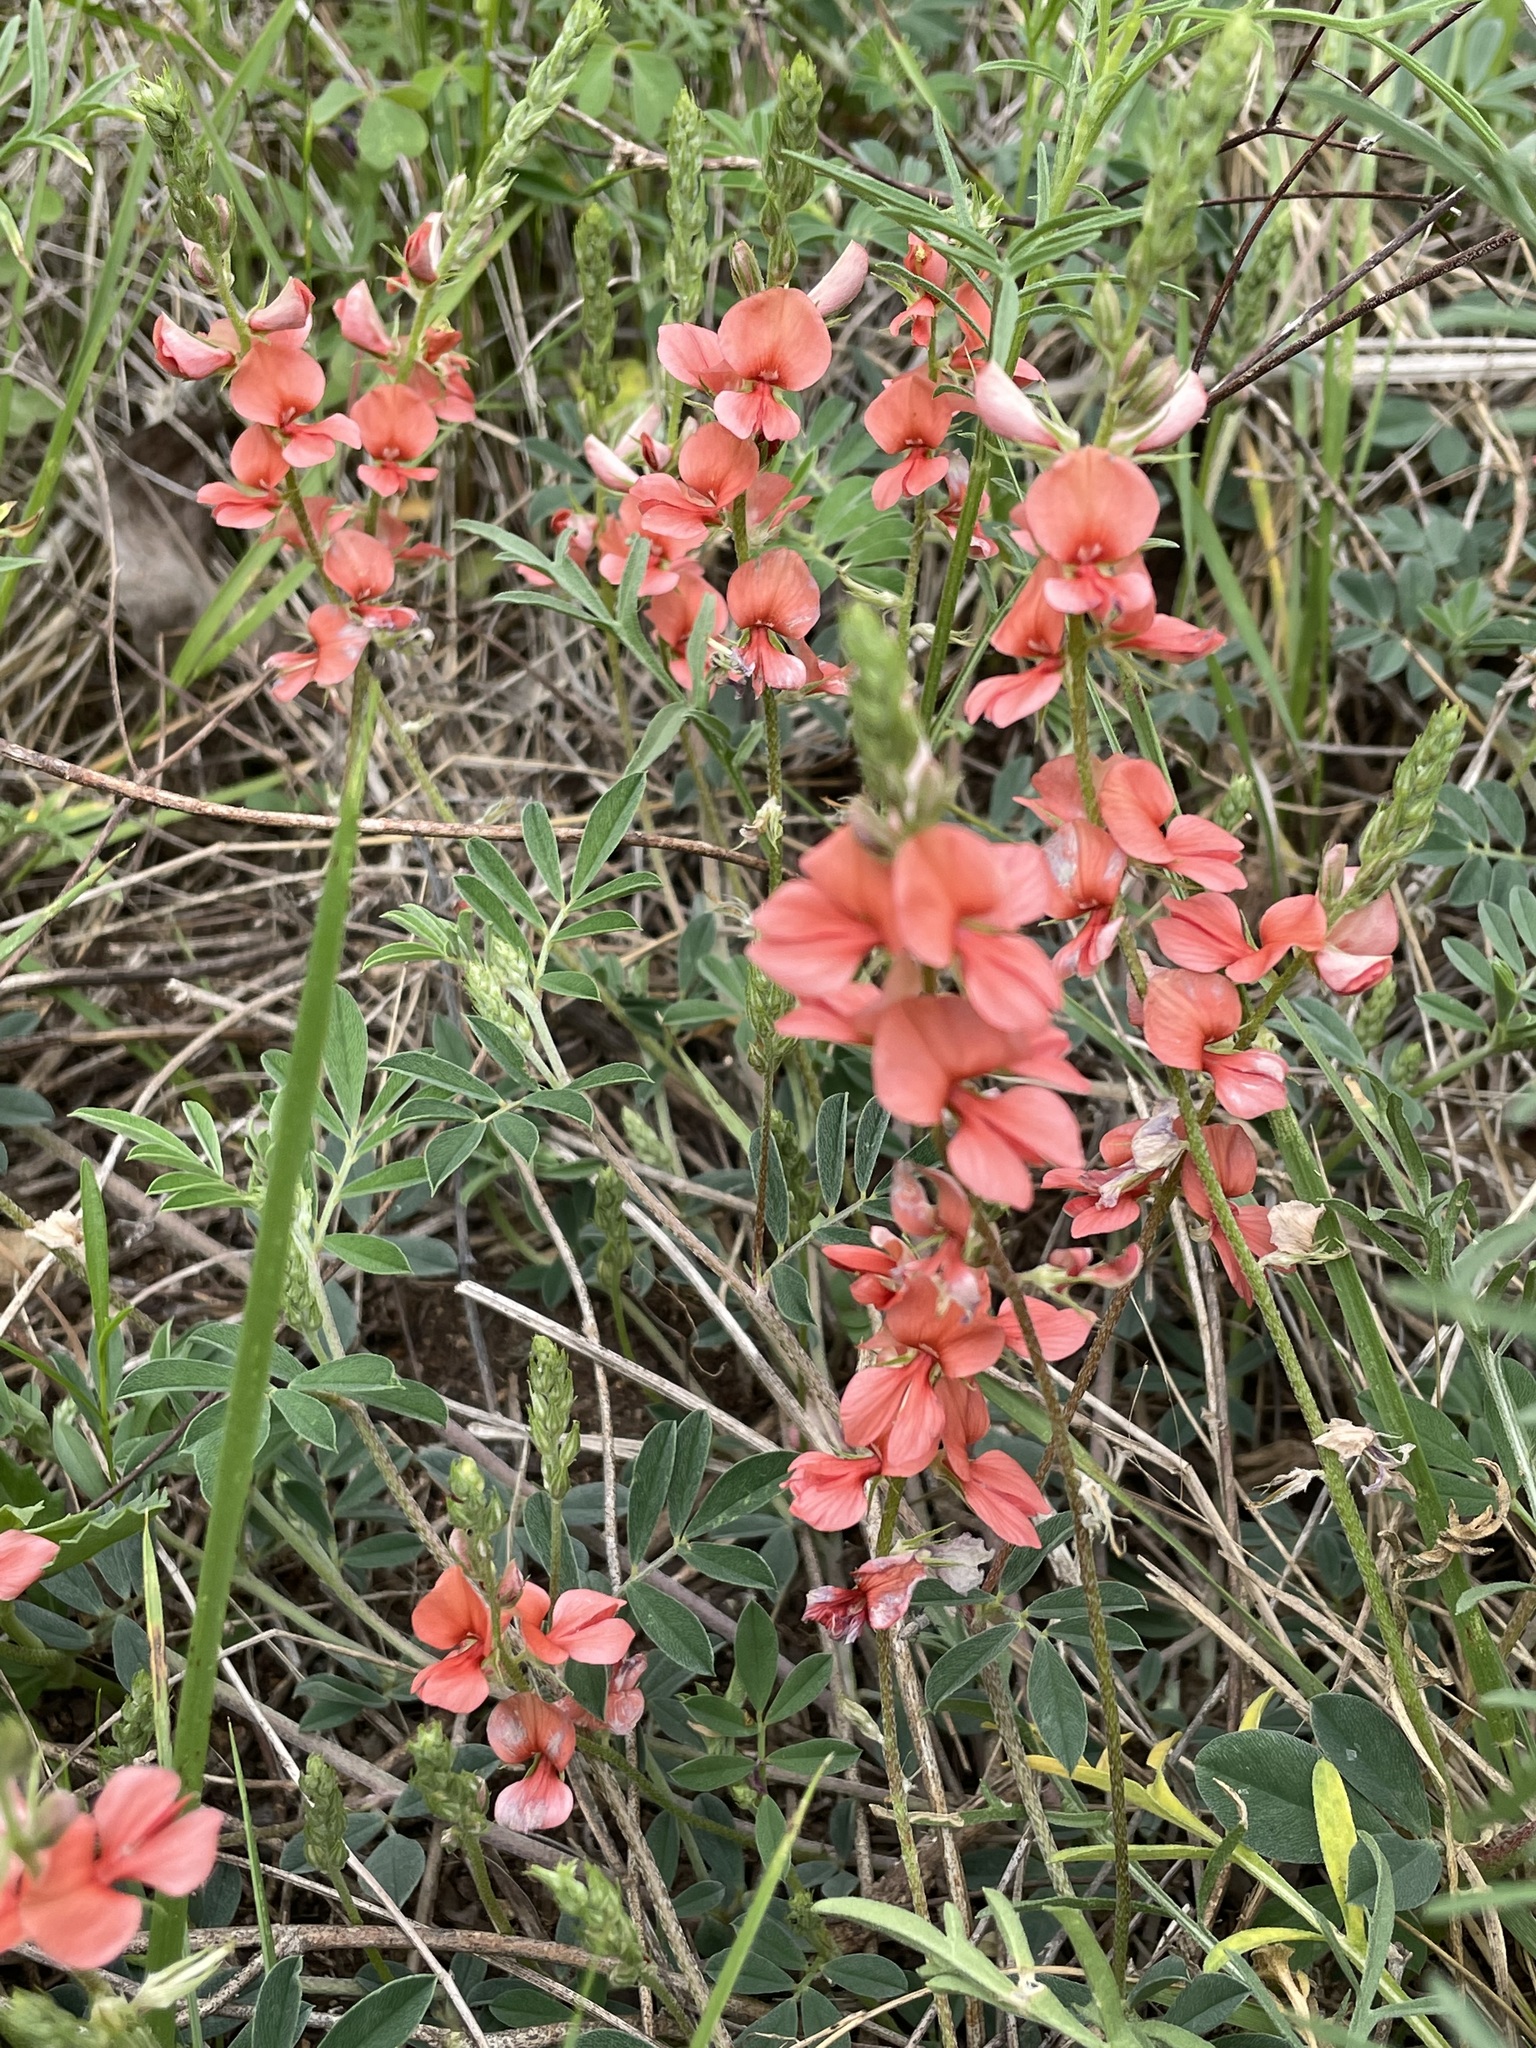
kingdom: Plantae
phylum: Tracheophyta
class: Magnoliopsida
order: Fabales
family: Fabaceae
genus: Indigofera
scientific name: Indigofera miniata
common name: Coast indigo
